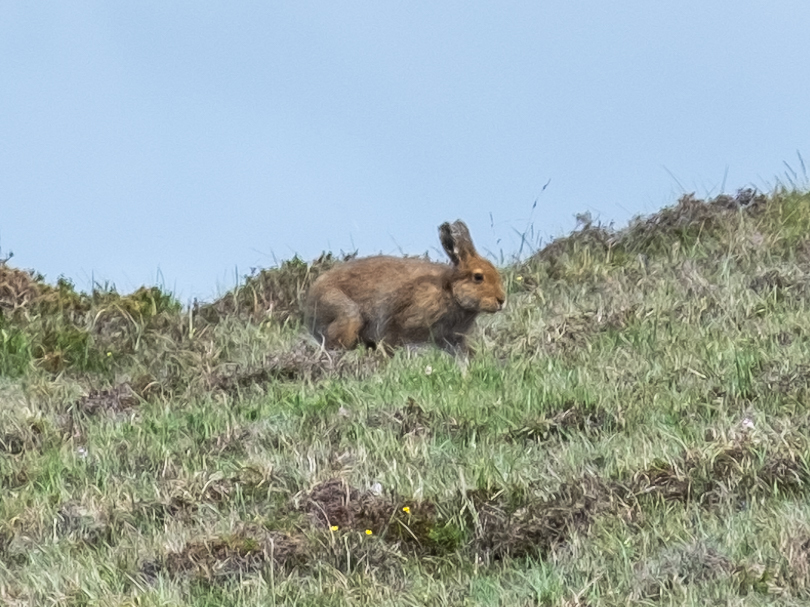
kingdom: Animalia
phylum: Chordata
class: Mammalia
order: Lagomorpha
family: Leporidae
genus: Lepus
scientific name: Lepus timidus
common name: Mountain hare
